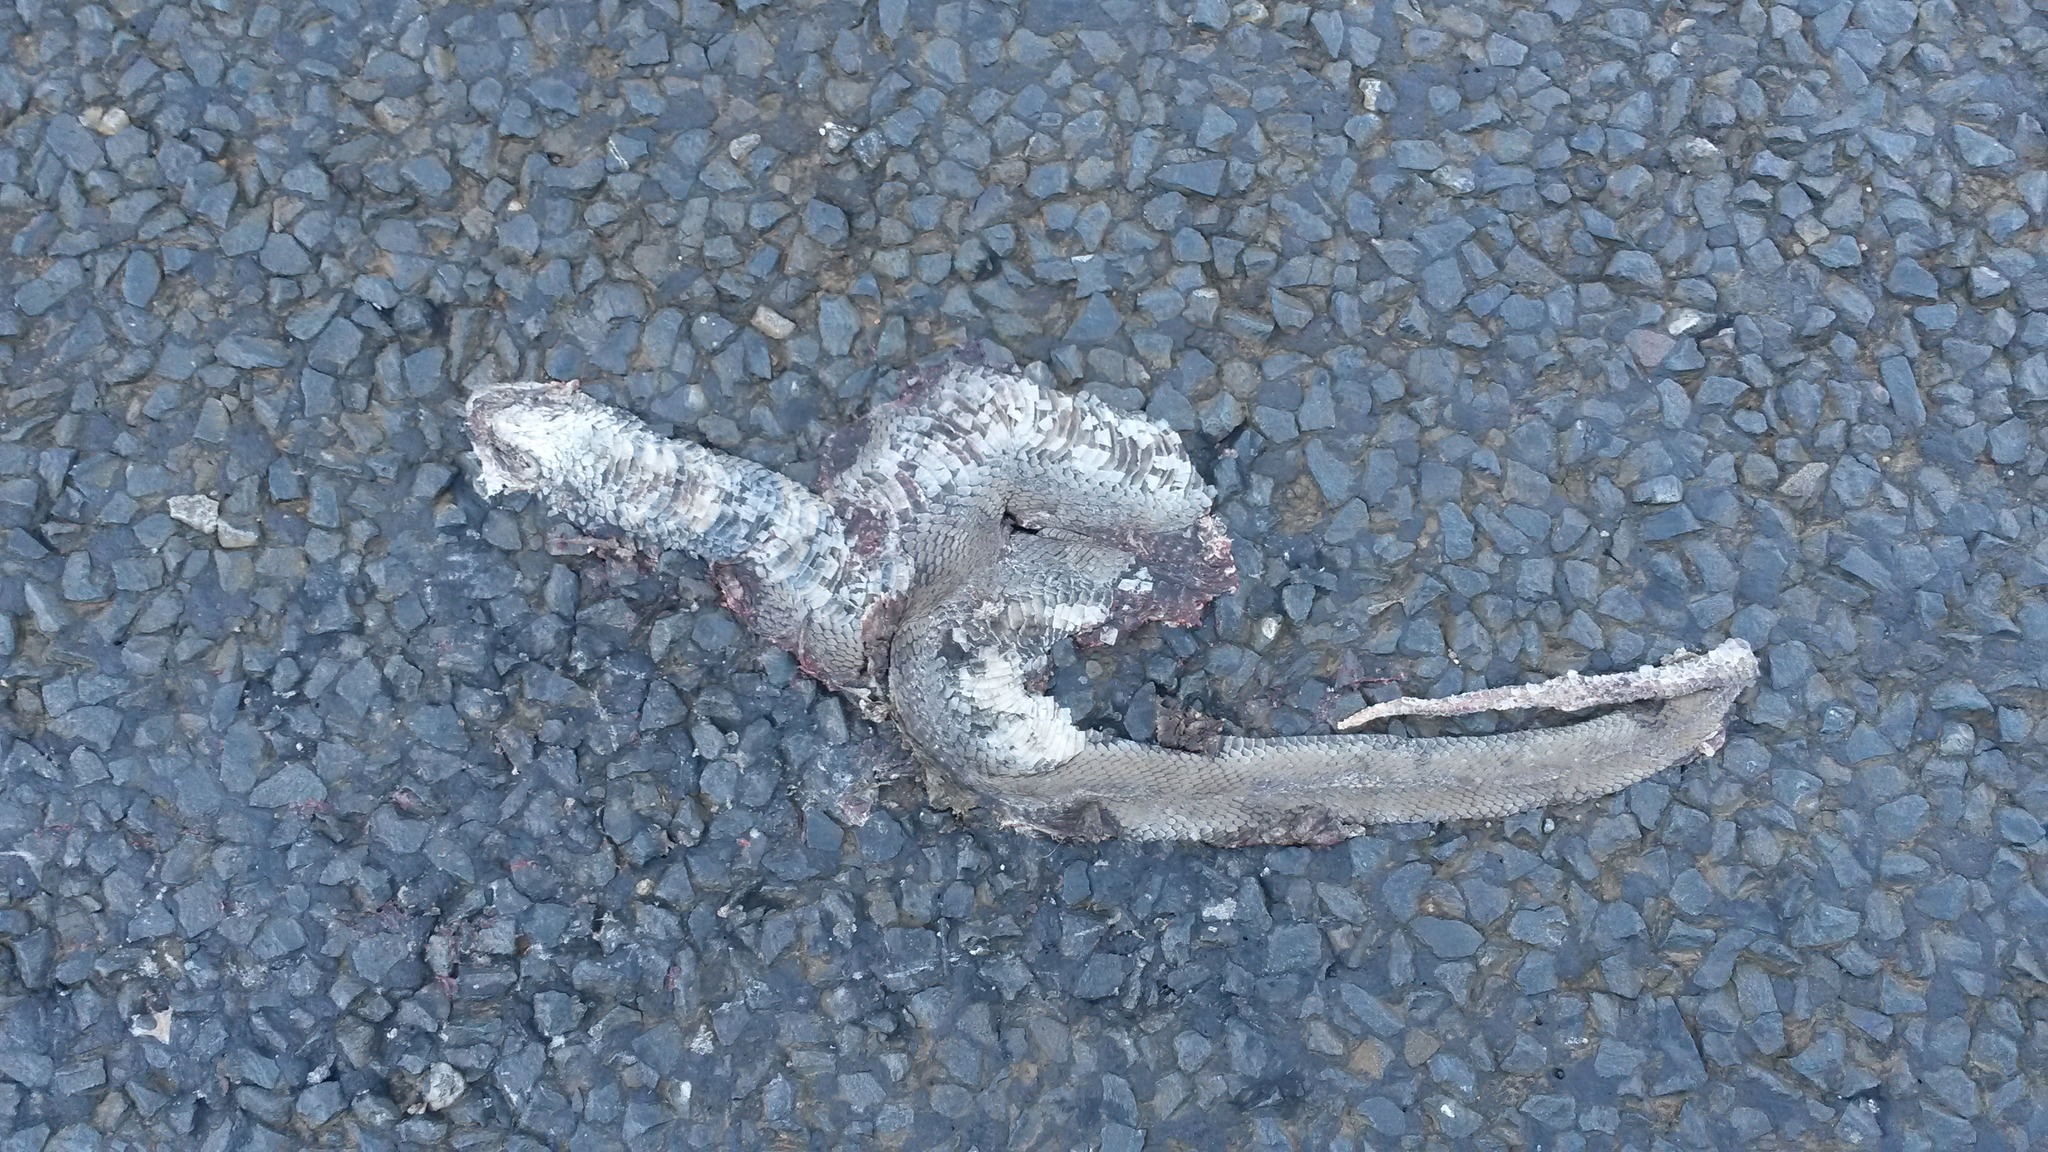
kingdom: Animalia
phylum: Chordata
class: Squamata
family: Elapidae
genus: Naja
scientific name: Naja mossambica
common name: Mozambique spitting cobra
